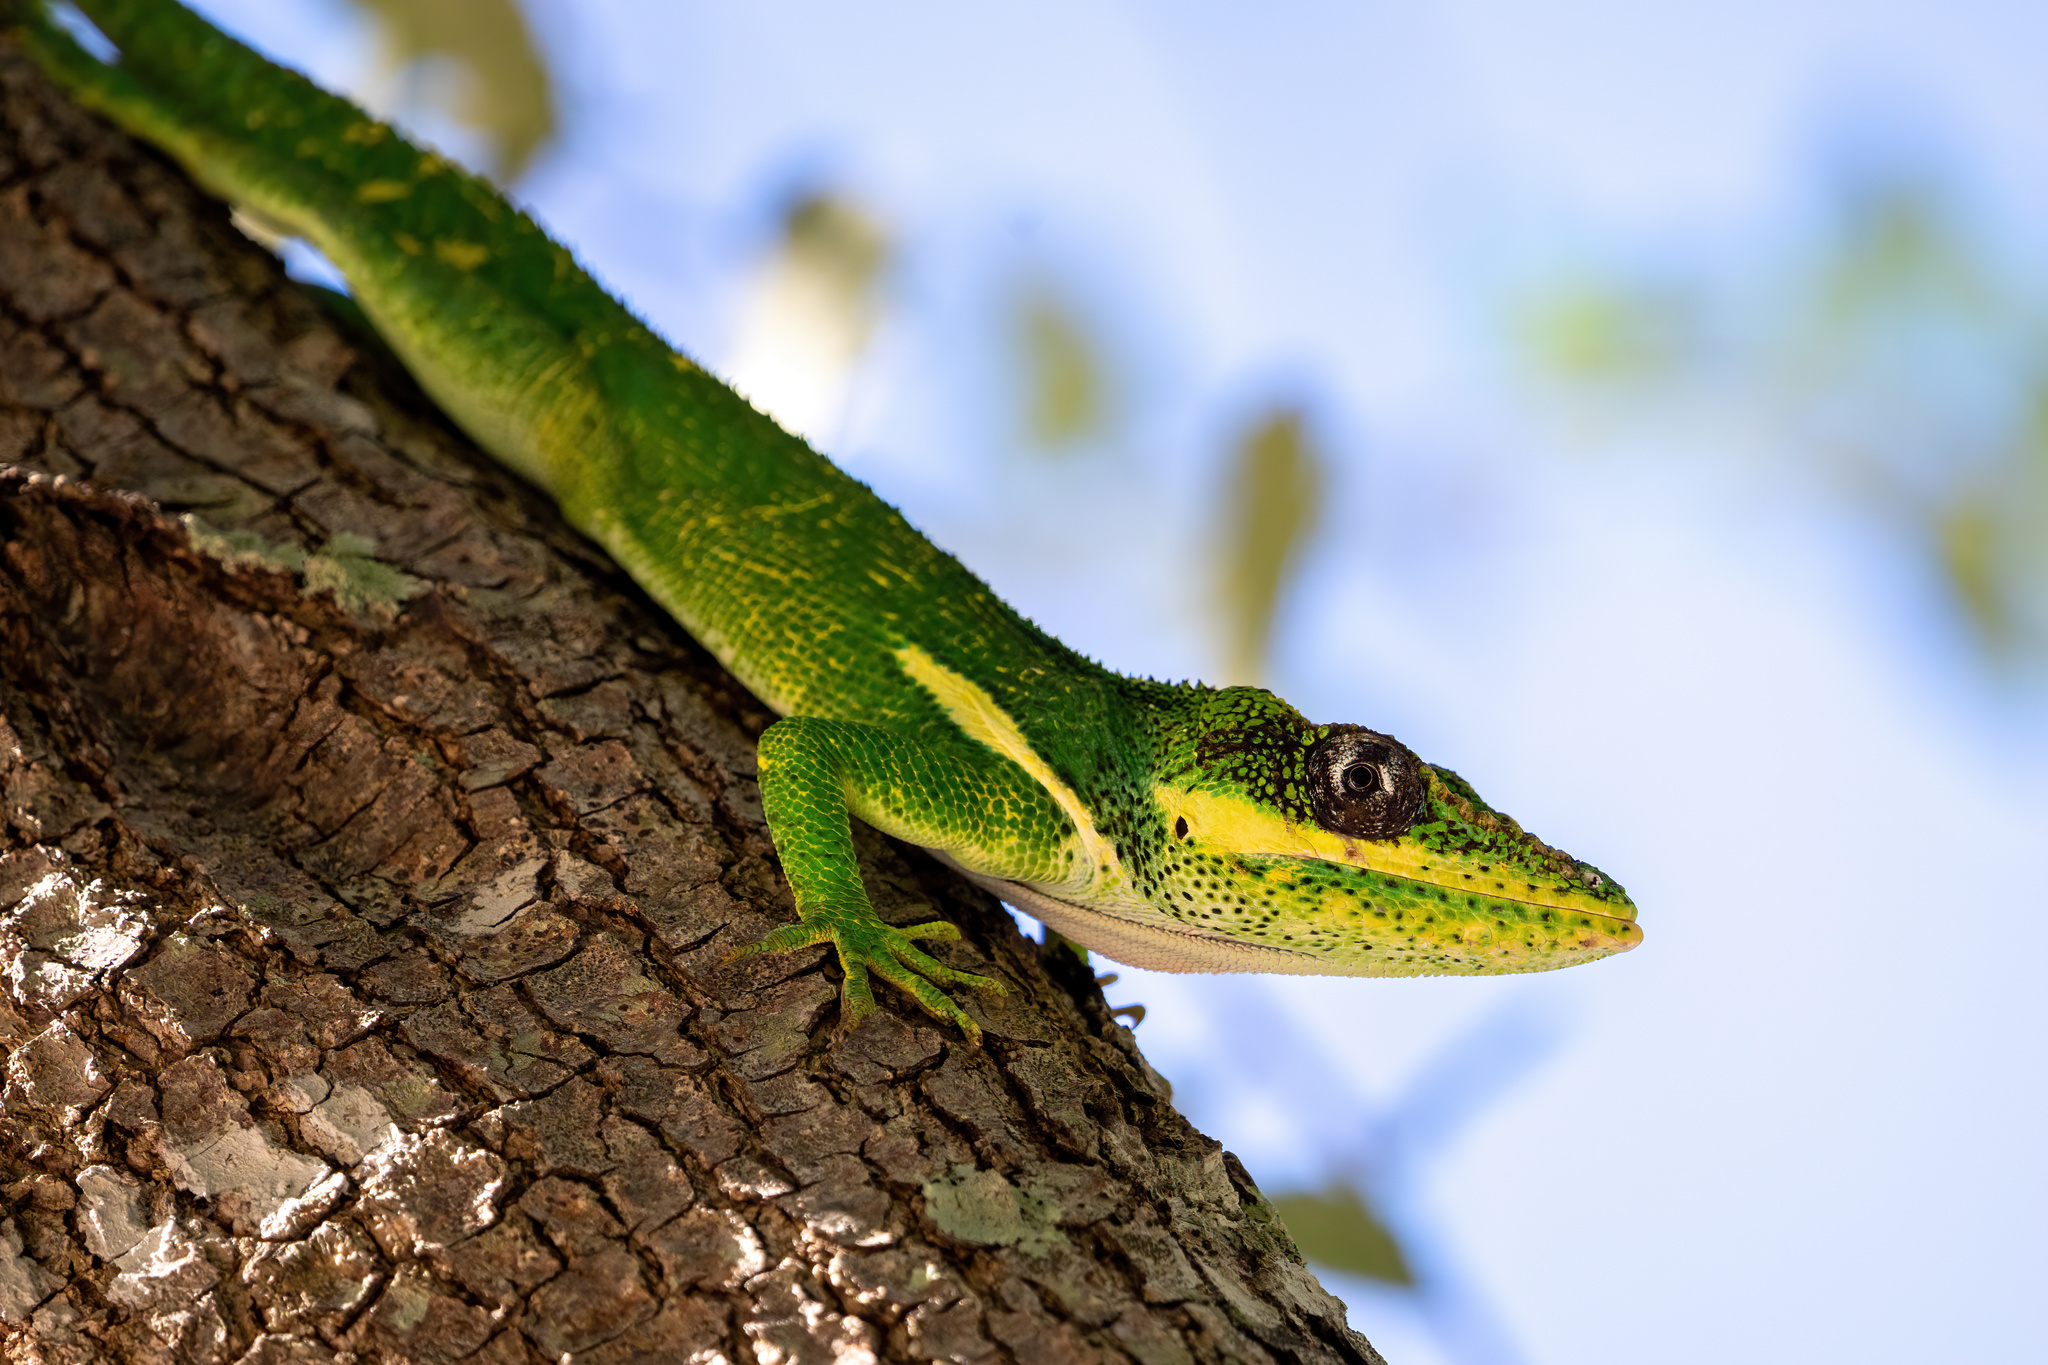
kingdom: Animalia
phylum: Chordata
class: Squamata
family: Dactyloidae
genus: Anolis
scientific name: Anolis equestris
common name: Knight anole
